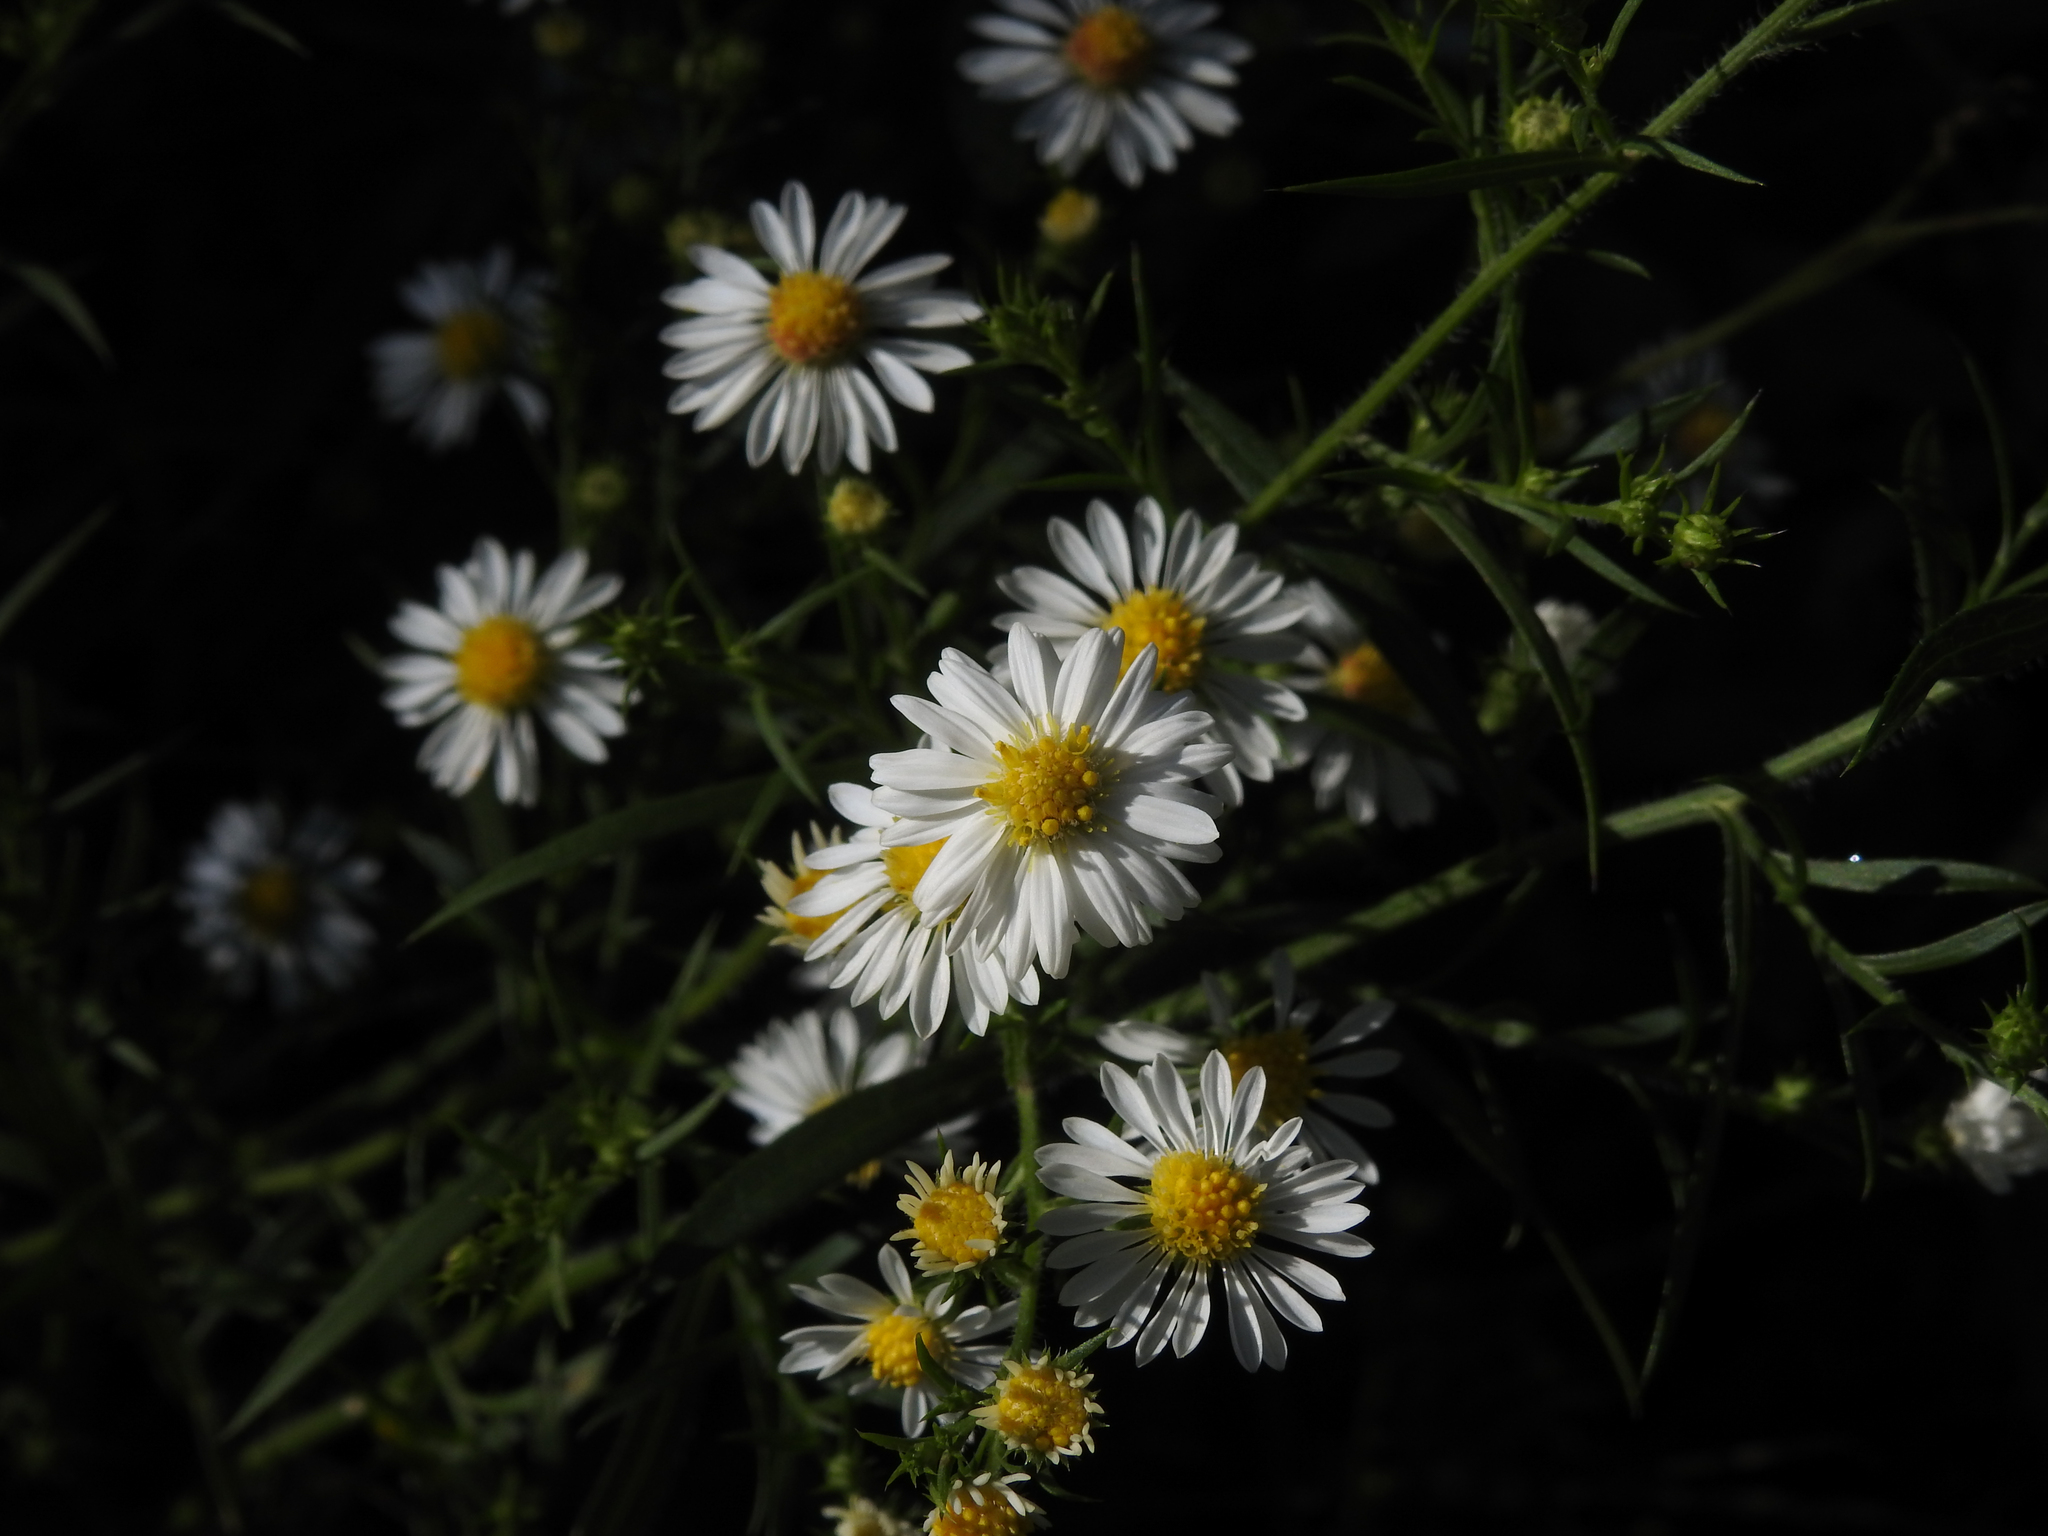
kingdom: Plantae
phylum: Tracheophyta
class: Magnoliopsida
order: Asterales
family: Asteraceae
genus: Symphyotrichum
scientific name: Symphyotrichum pilosum
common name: Awl aster
